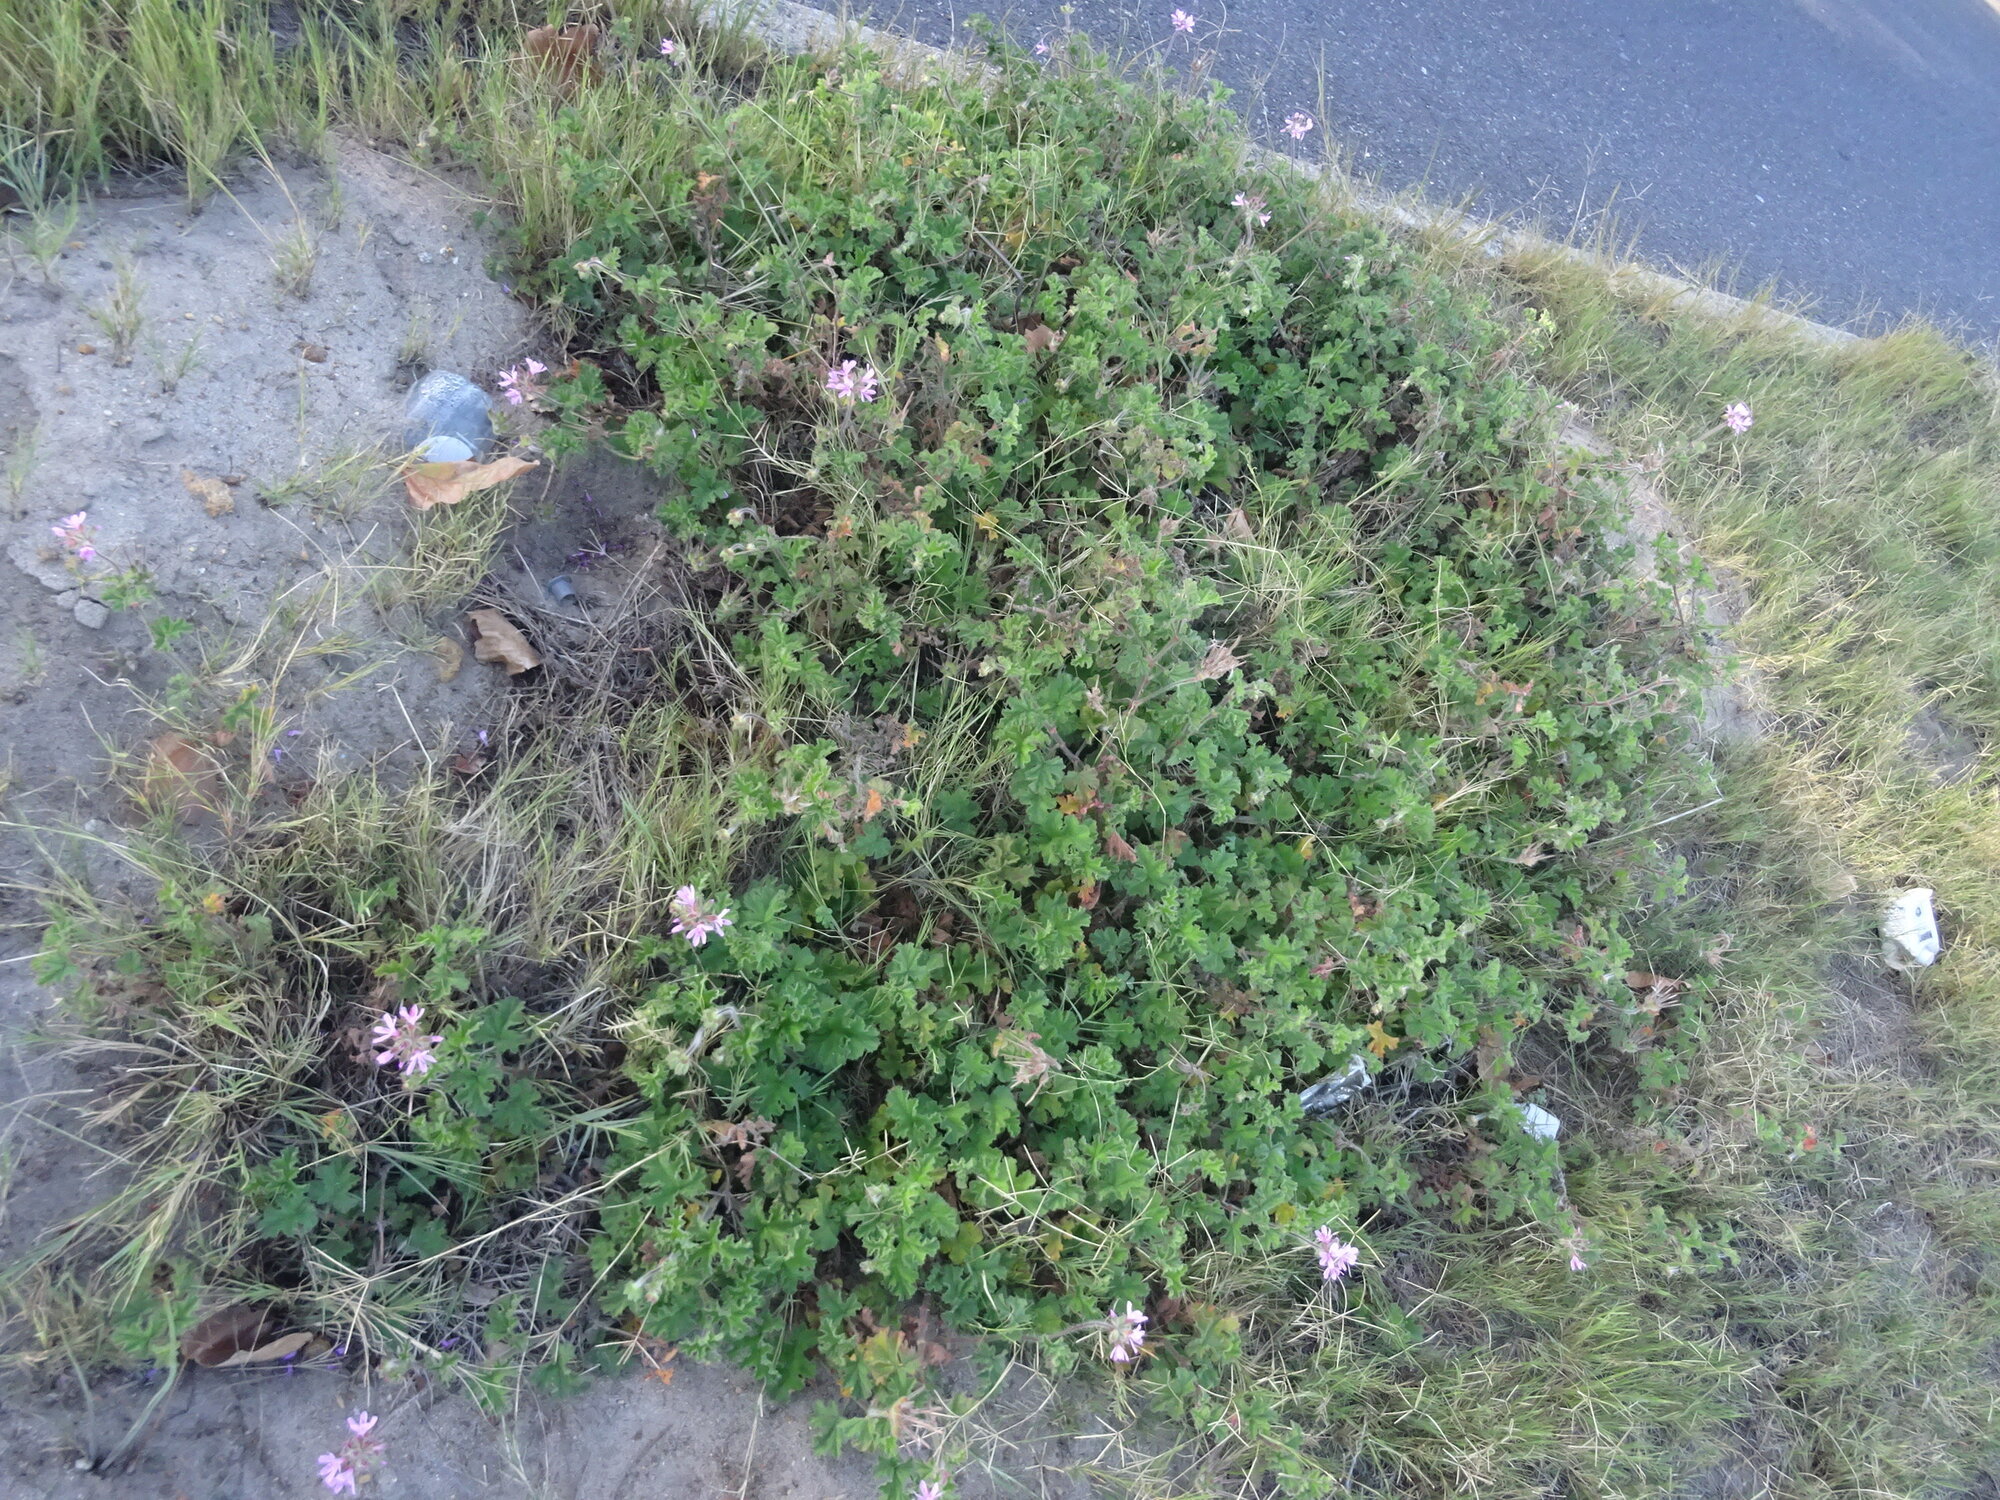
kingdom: Plantae
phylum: Tracheophyta
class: Magnoliopsida
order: Geraniales
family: Geraniaceae
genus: Pelargonium
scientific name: Pelargonium capitatum
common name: Rose scented geranium
